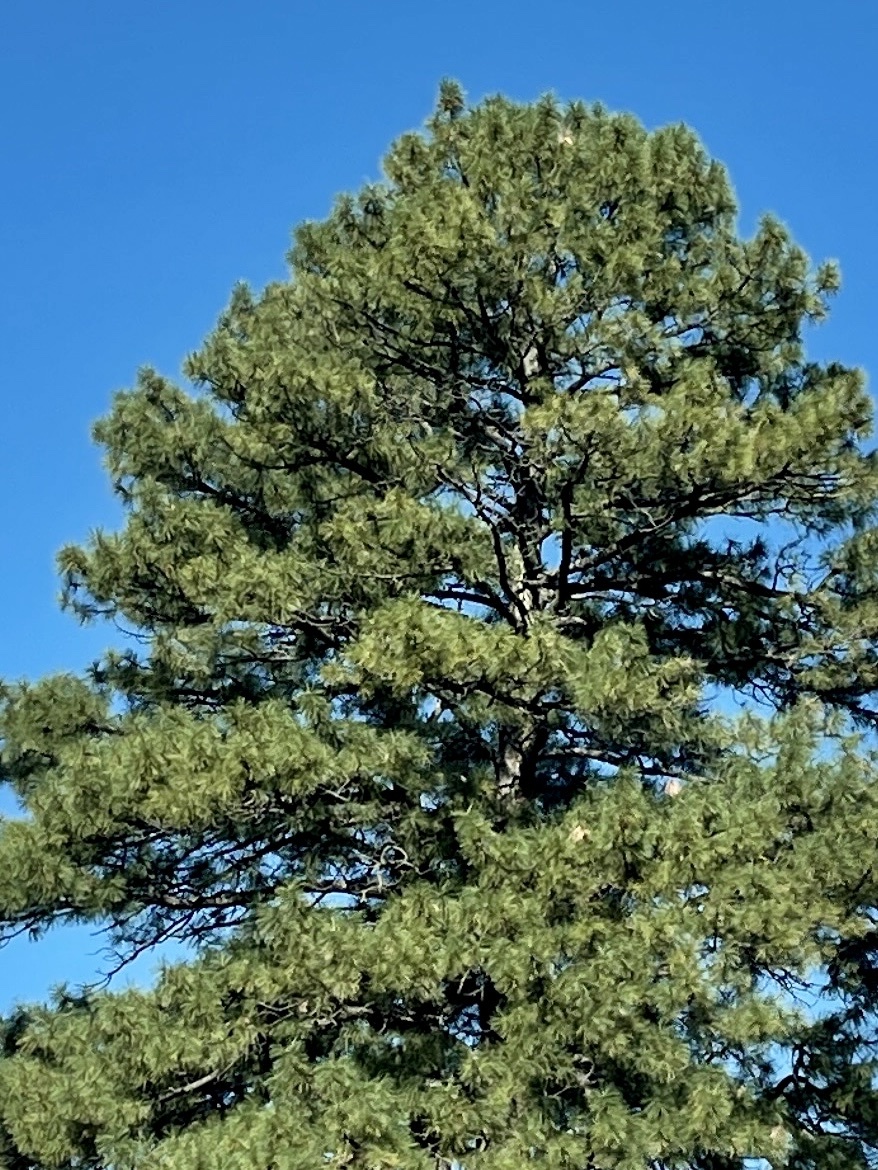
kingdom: Plantae
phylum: Tracheophyta
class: Pinopsida
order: Pinales
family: Pinaceae
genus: Pinus
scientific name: Pinus ponderosa
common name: Western yellow-pine
